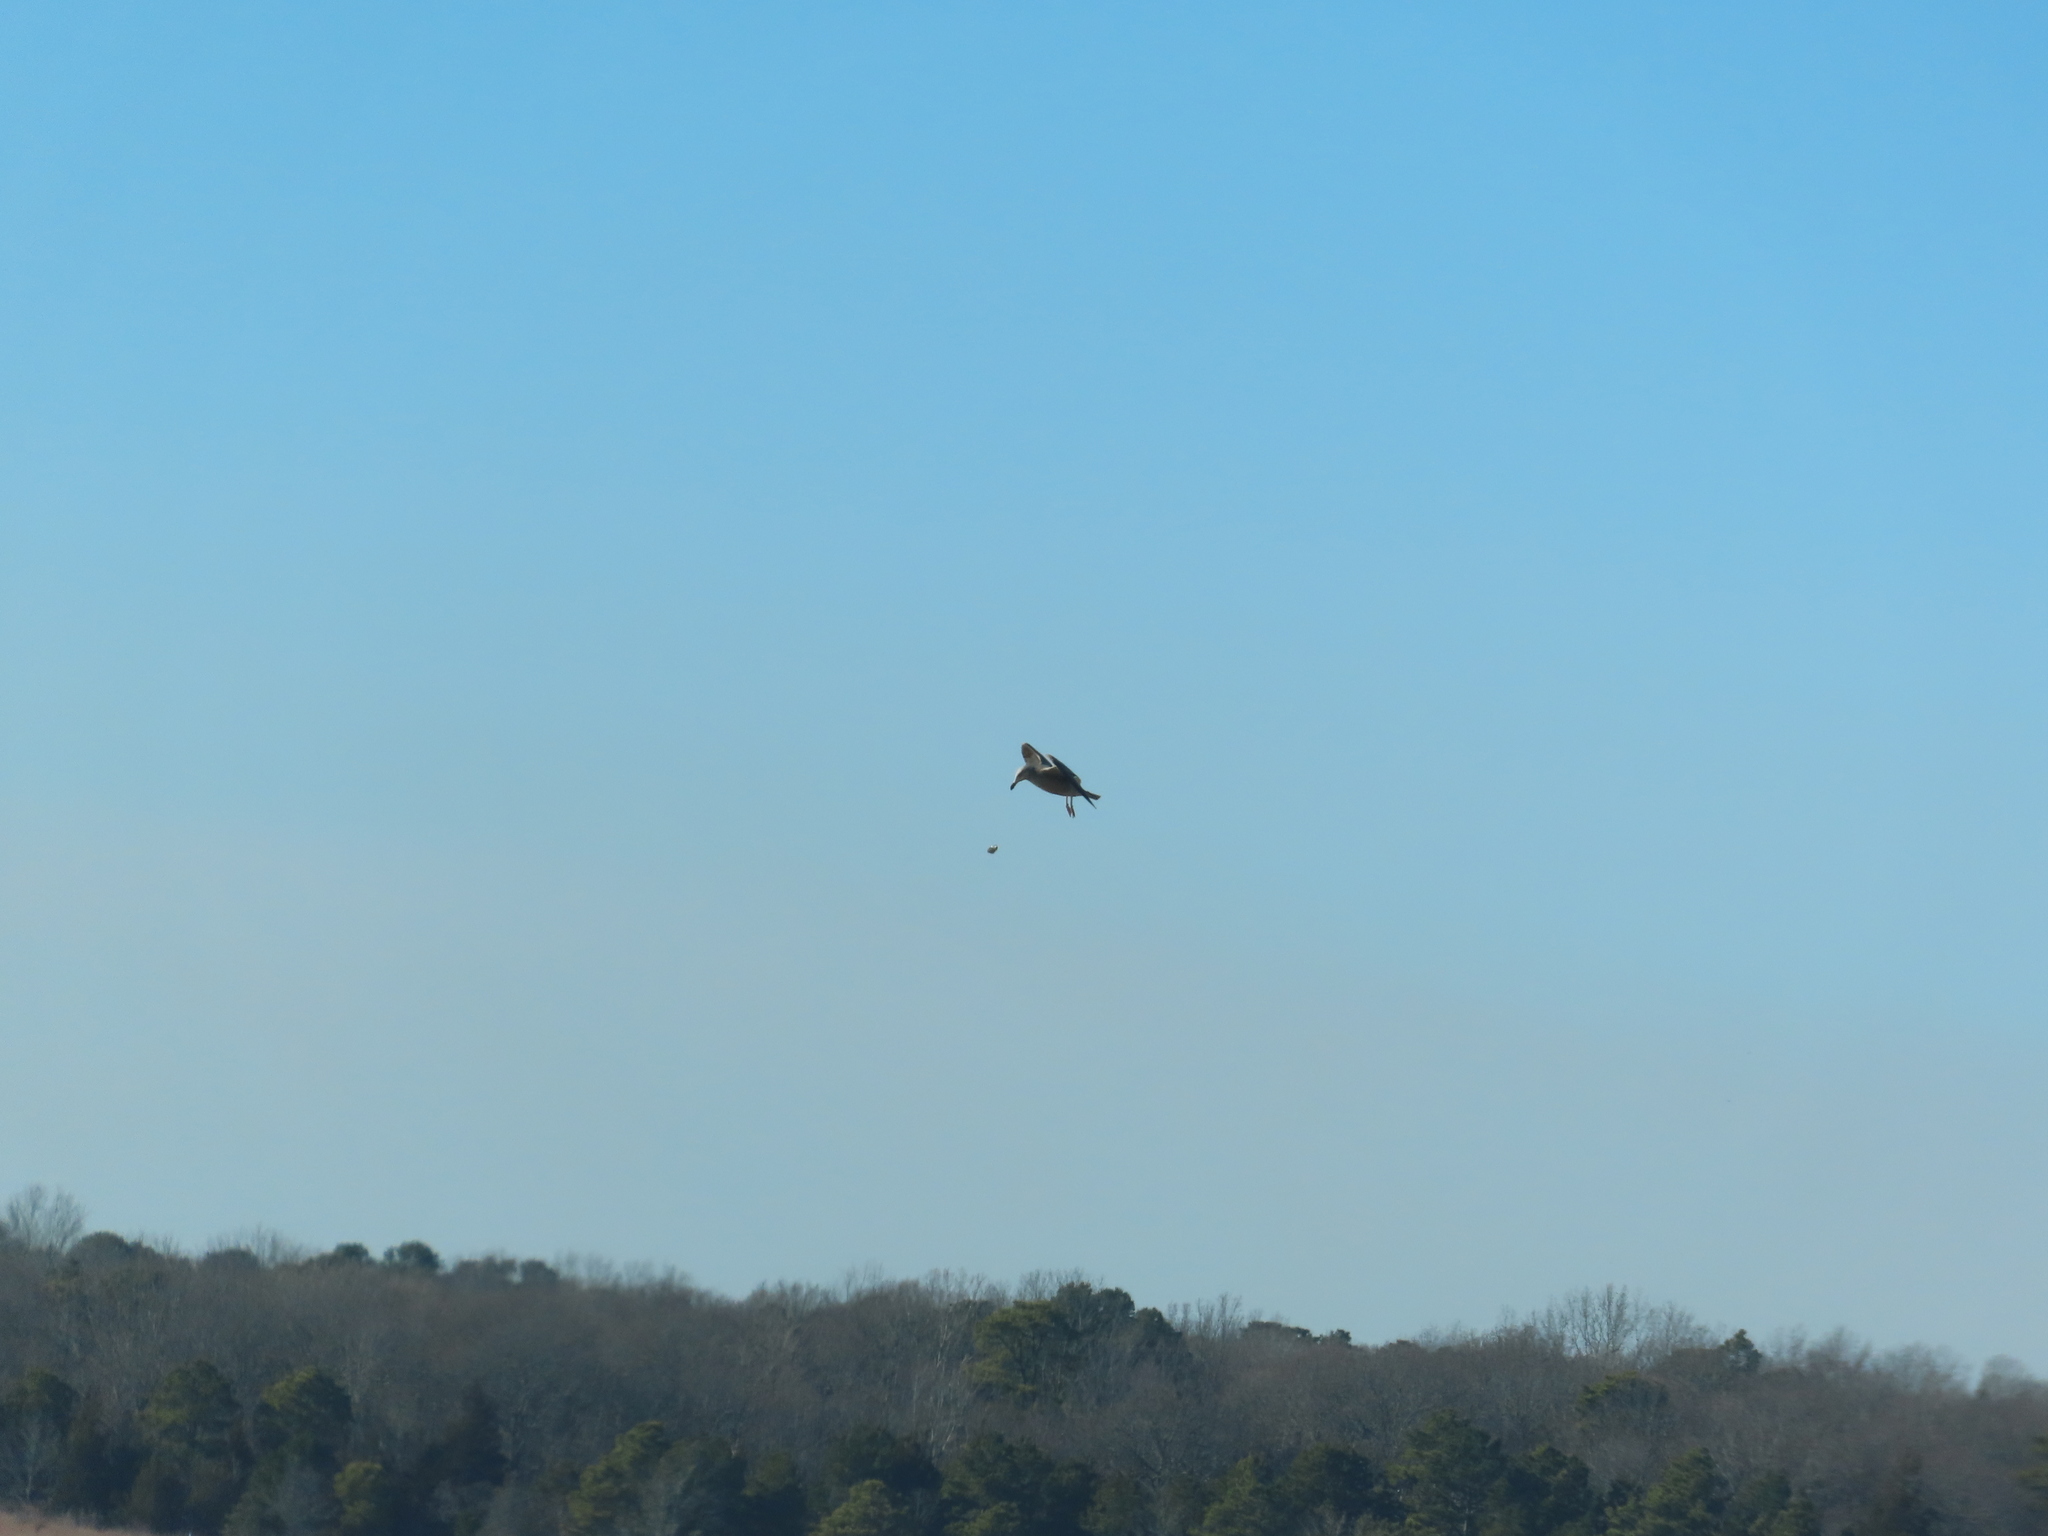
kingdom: Animalia
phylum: Chordata
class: Aves
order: Charadriiformes
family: Laridae
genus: Larus
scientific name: Larus argentatus
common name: Herring gull
